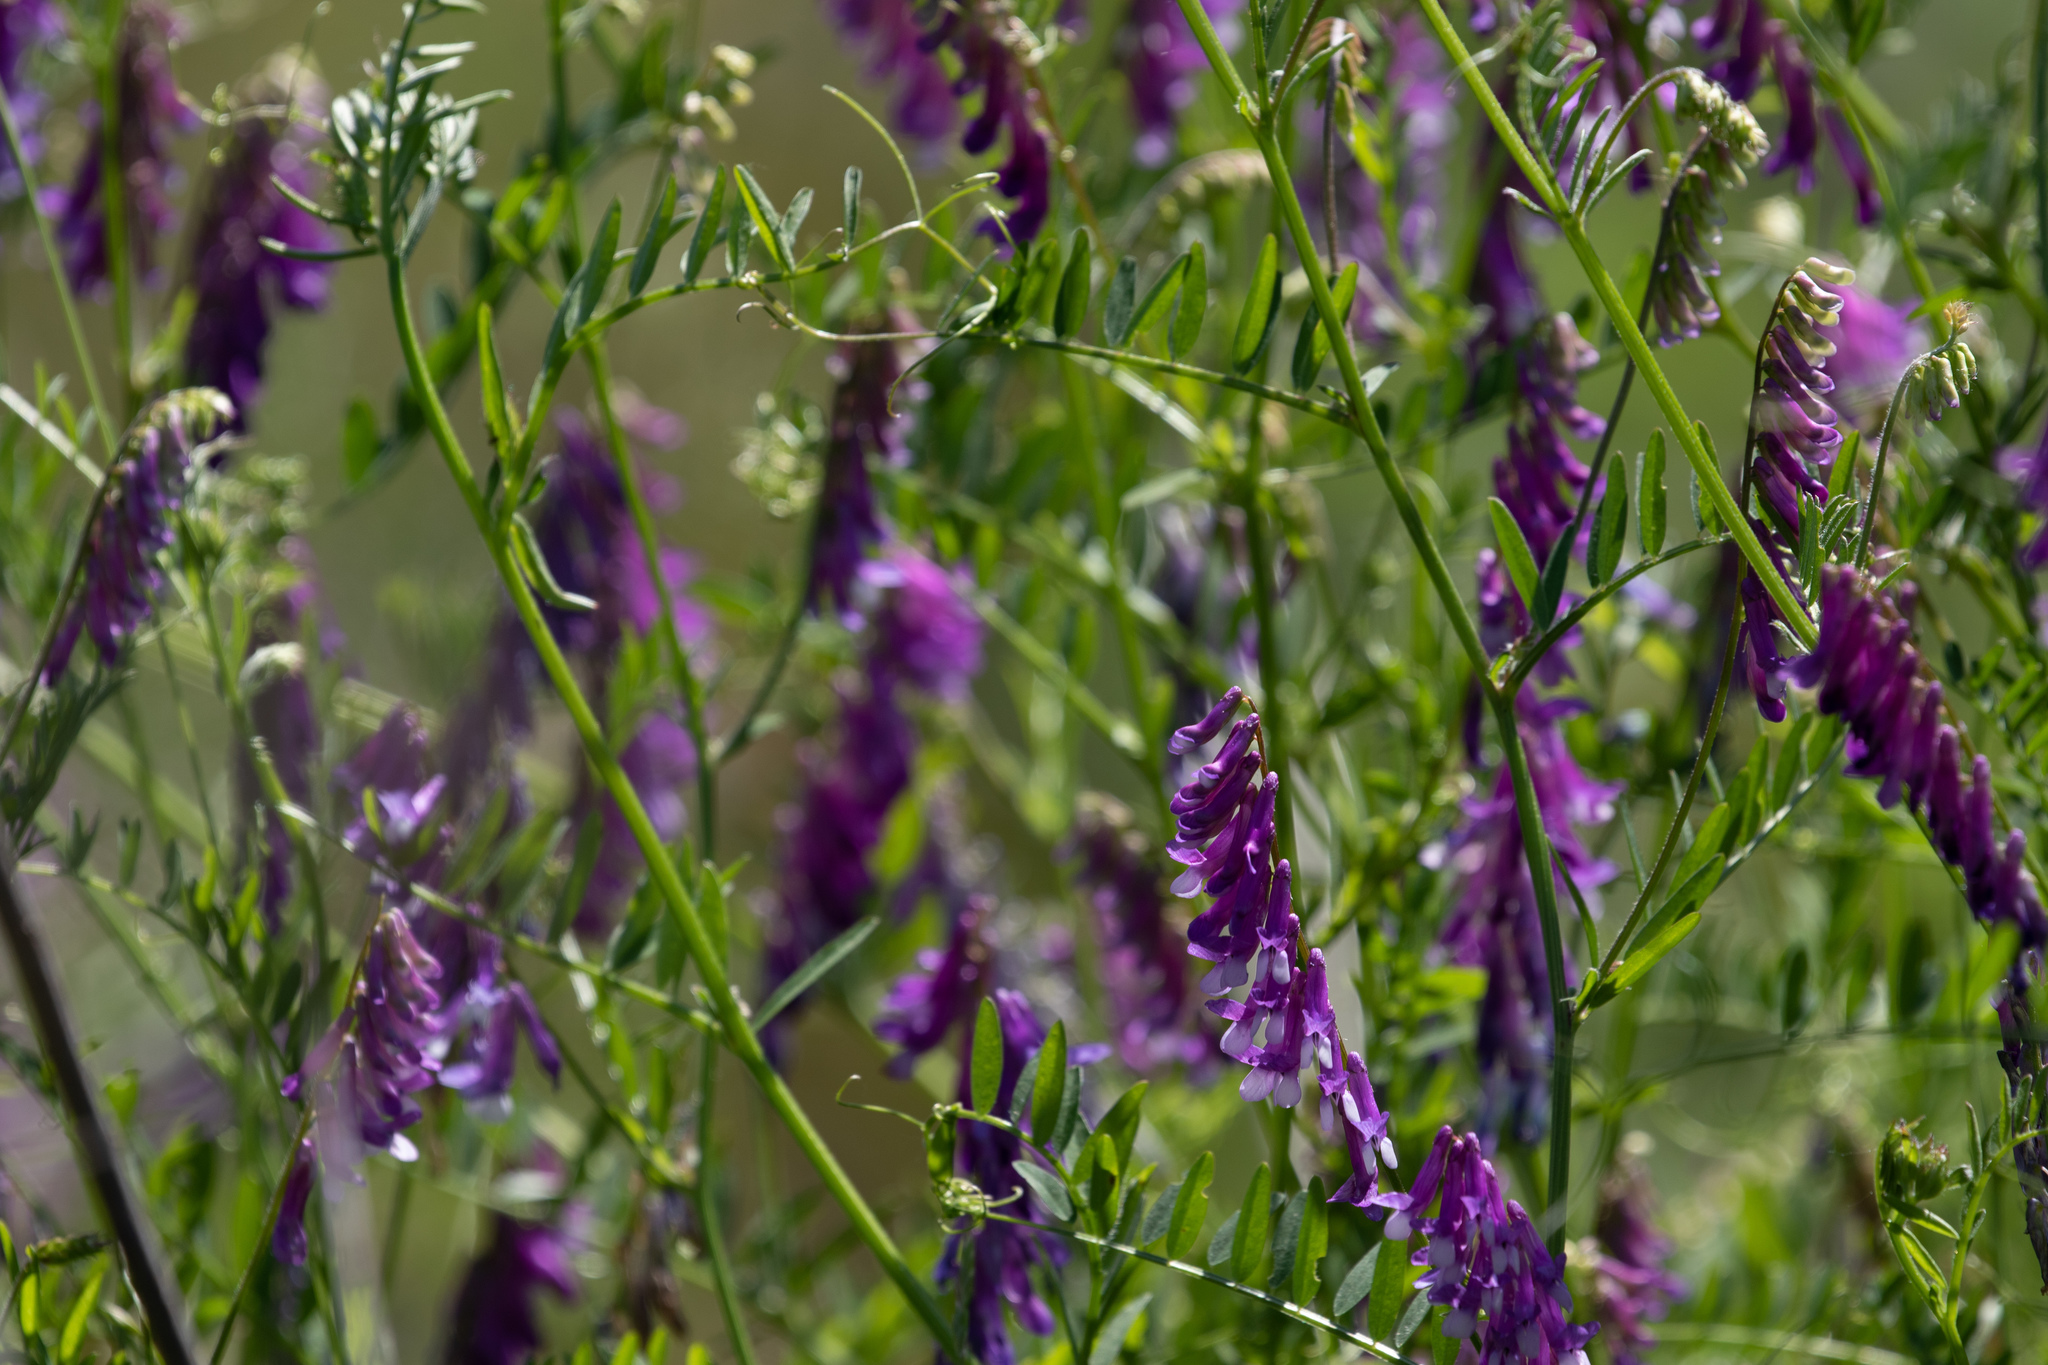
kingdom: Plantae
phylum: Tracheophyta
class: Magnoliopsida
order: Fabales
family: Fabaceae
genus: Vicia
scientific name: Vicia villosa
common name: Fodder vetch
